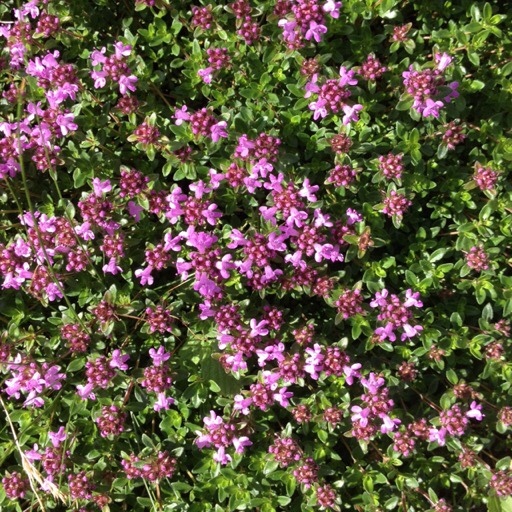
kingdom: Plantae
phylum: Tracheophyta
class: Magnoliopsida
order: Lamiales
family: Lamiaceae
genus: Thymus
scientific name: Thymus serpyllum
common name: Breckland thyme
